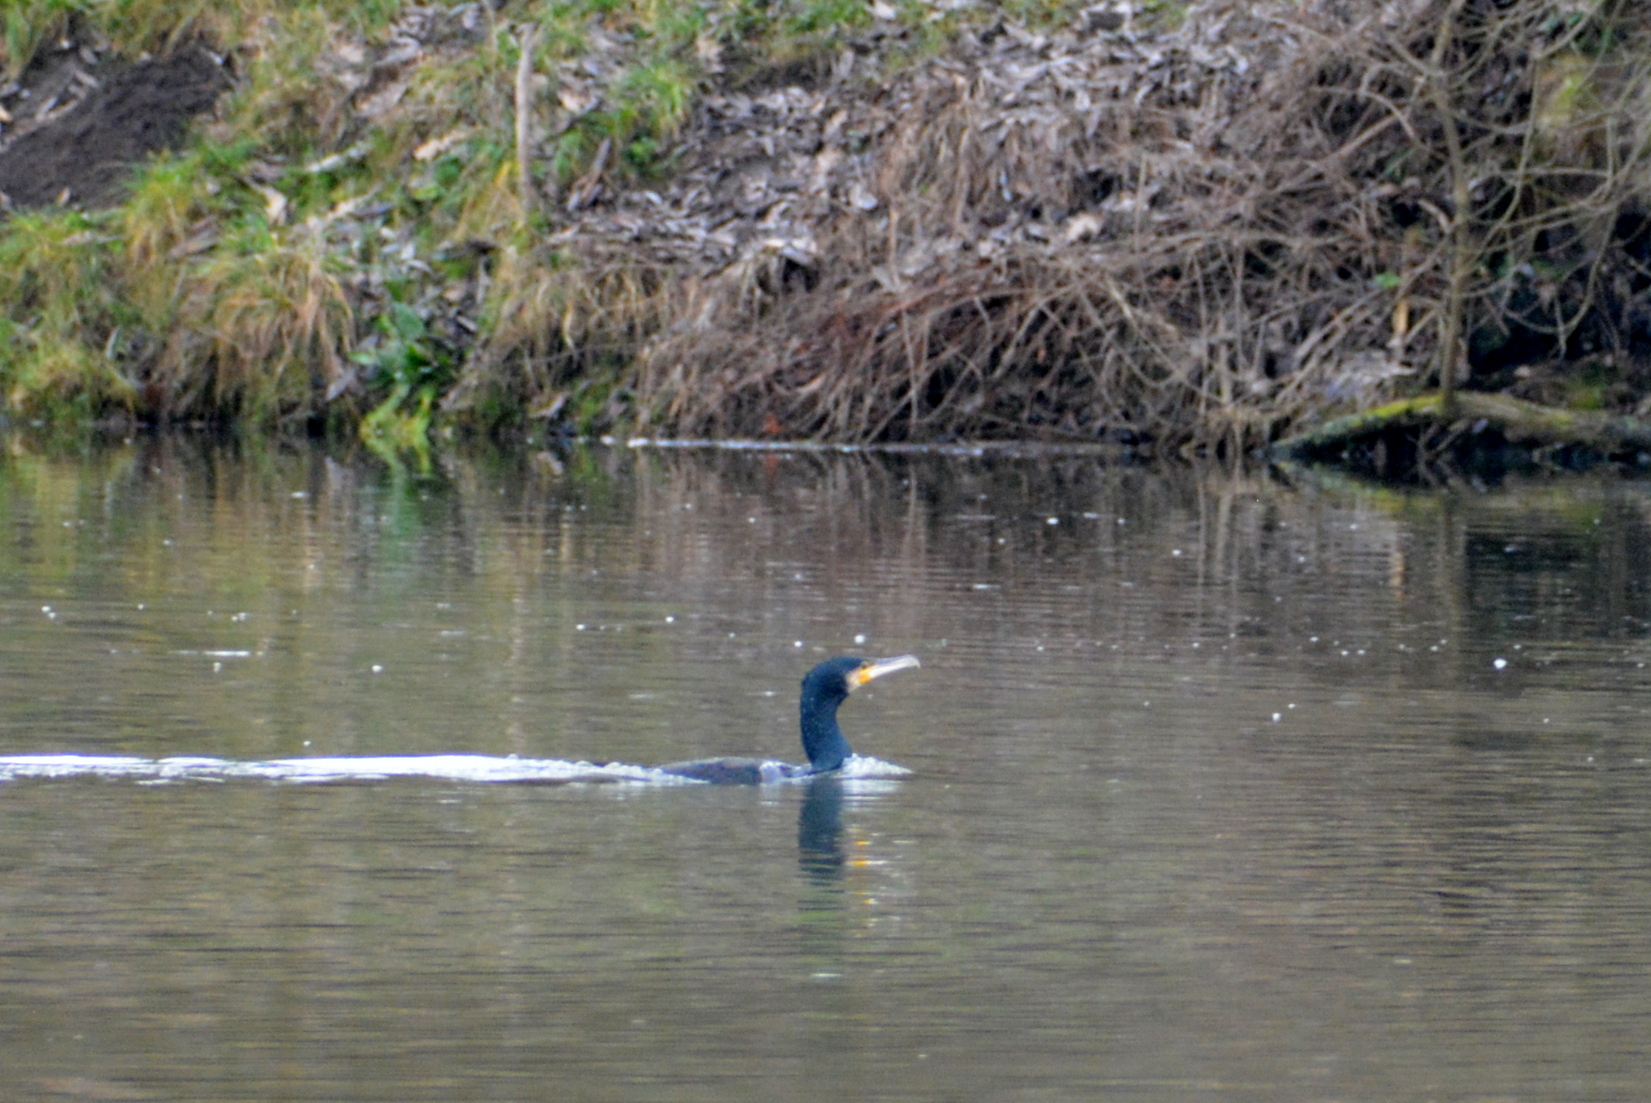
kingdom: Animalia
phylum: Chordata
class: Aves
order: Suliformes
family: Phalacrocoracidae
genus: Phalacrocorax
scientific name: Phalacrocorax carbo
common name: Great cormorant
